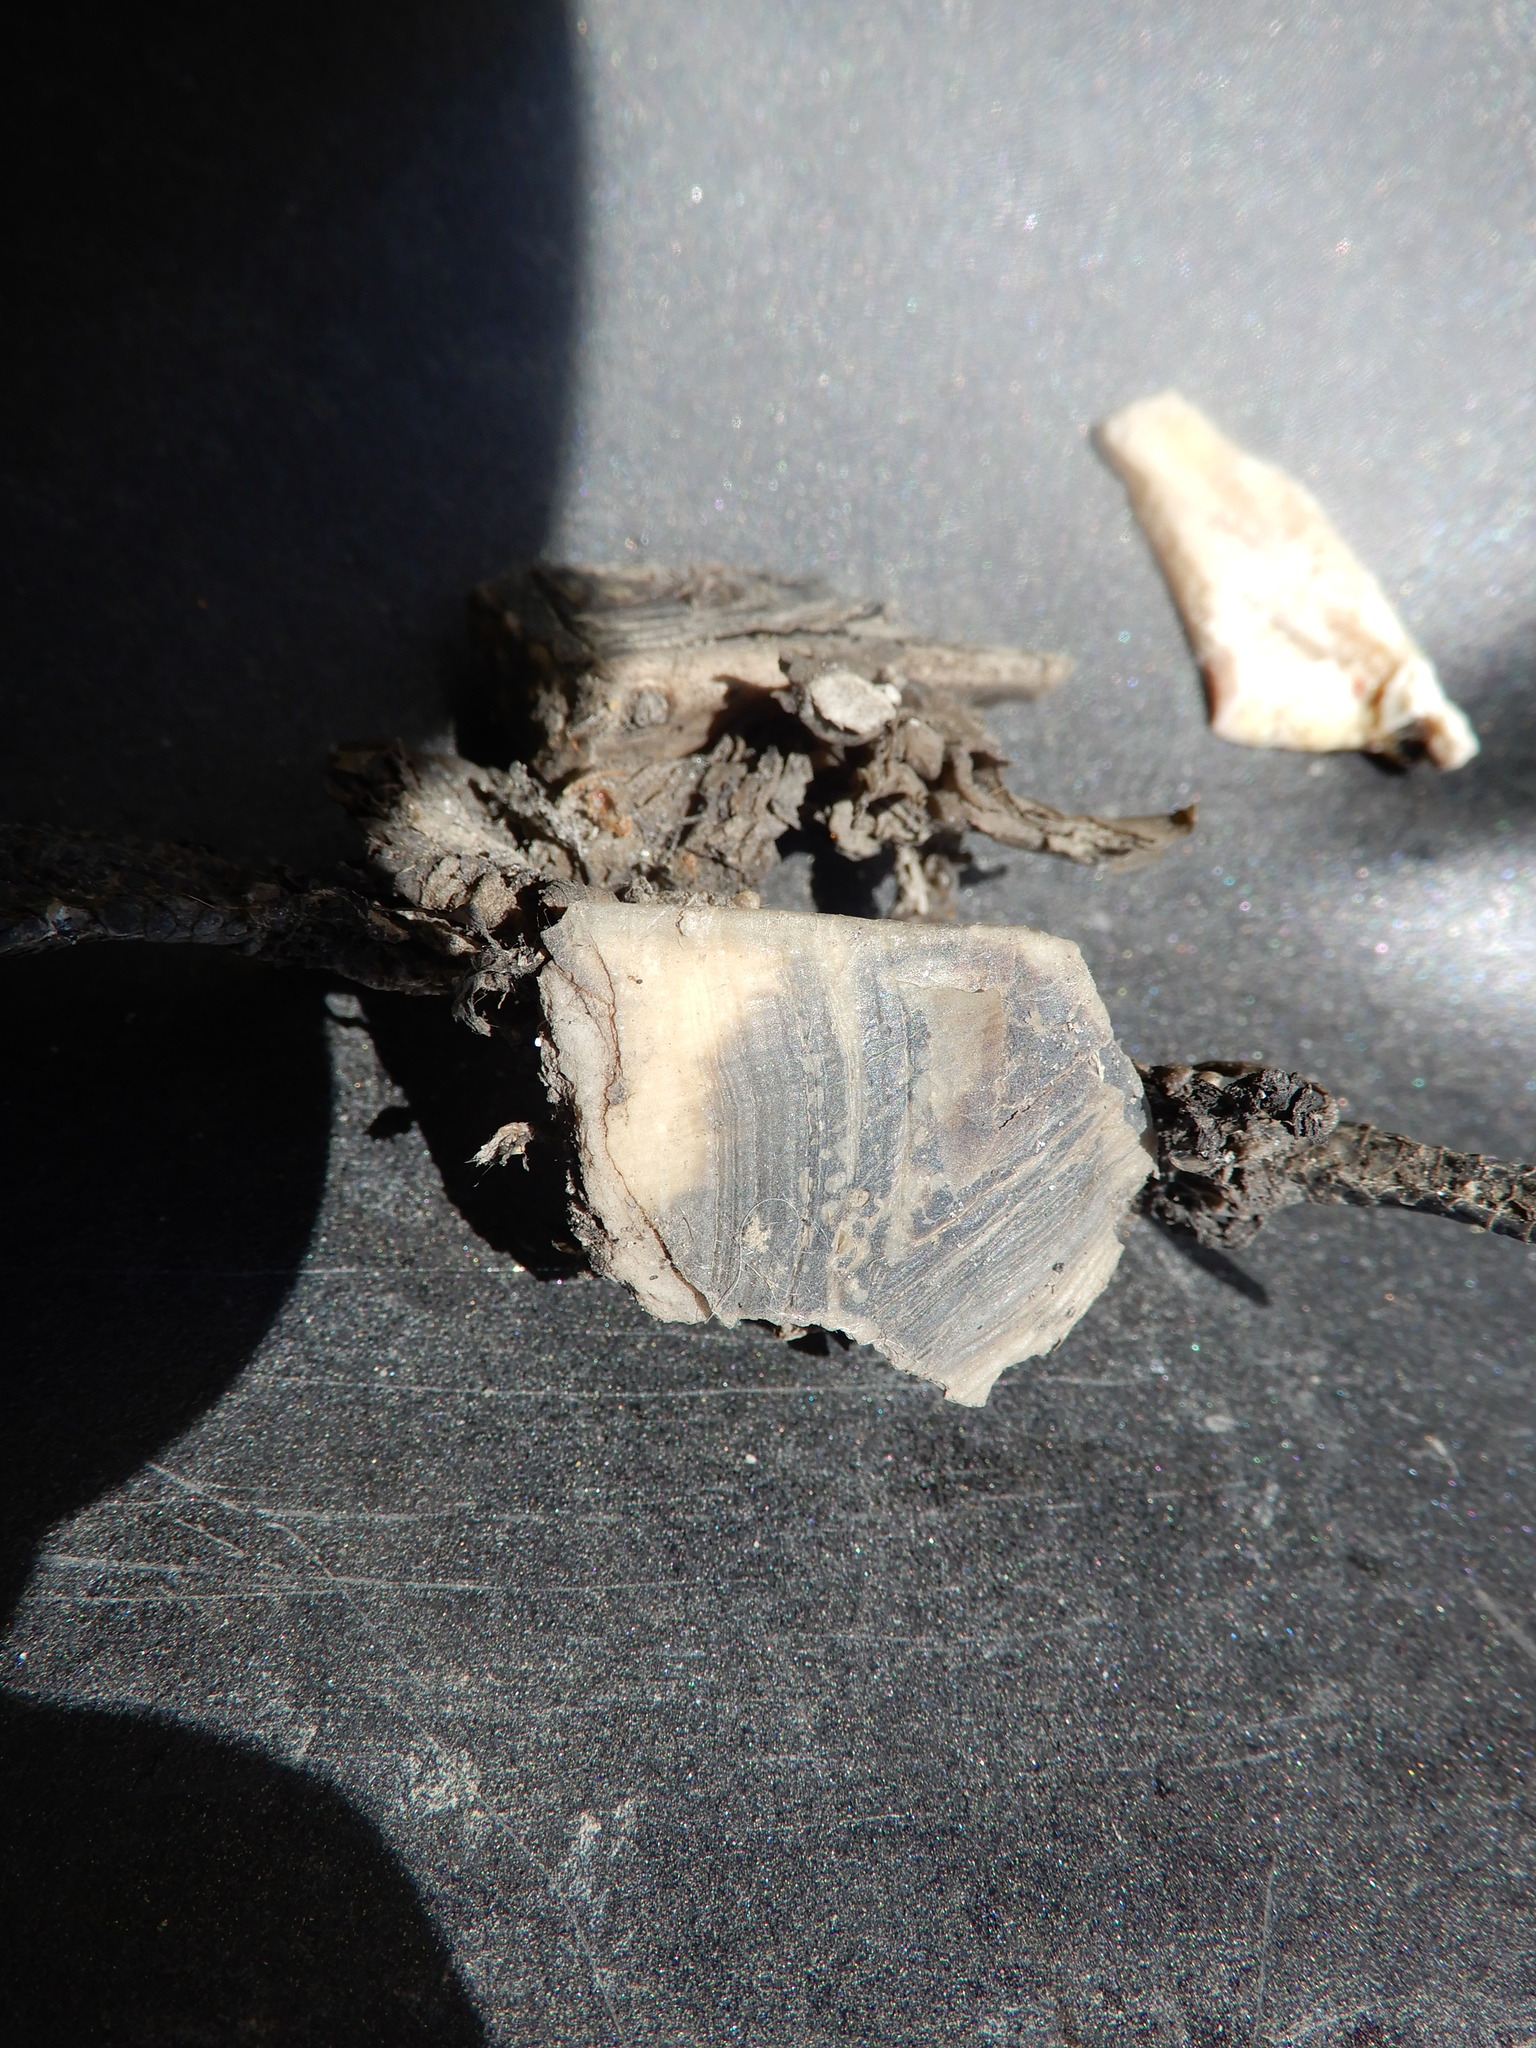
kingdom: Animalia
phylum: Chordata
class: Testudines
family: Emydidae
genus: Emys
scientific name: Emys blandingii
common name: Blanding's turtle
